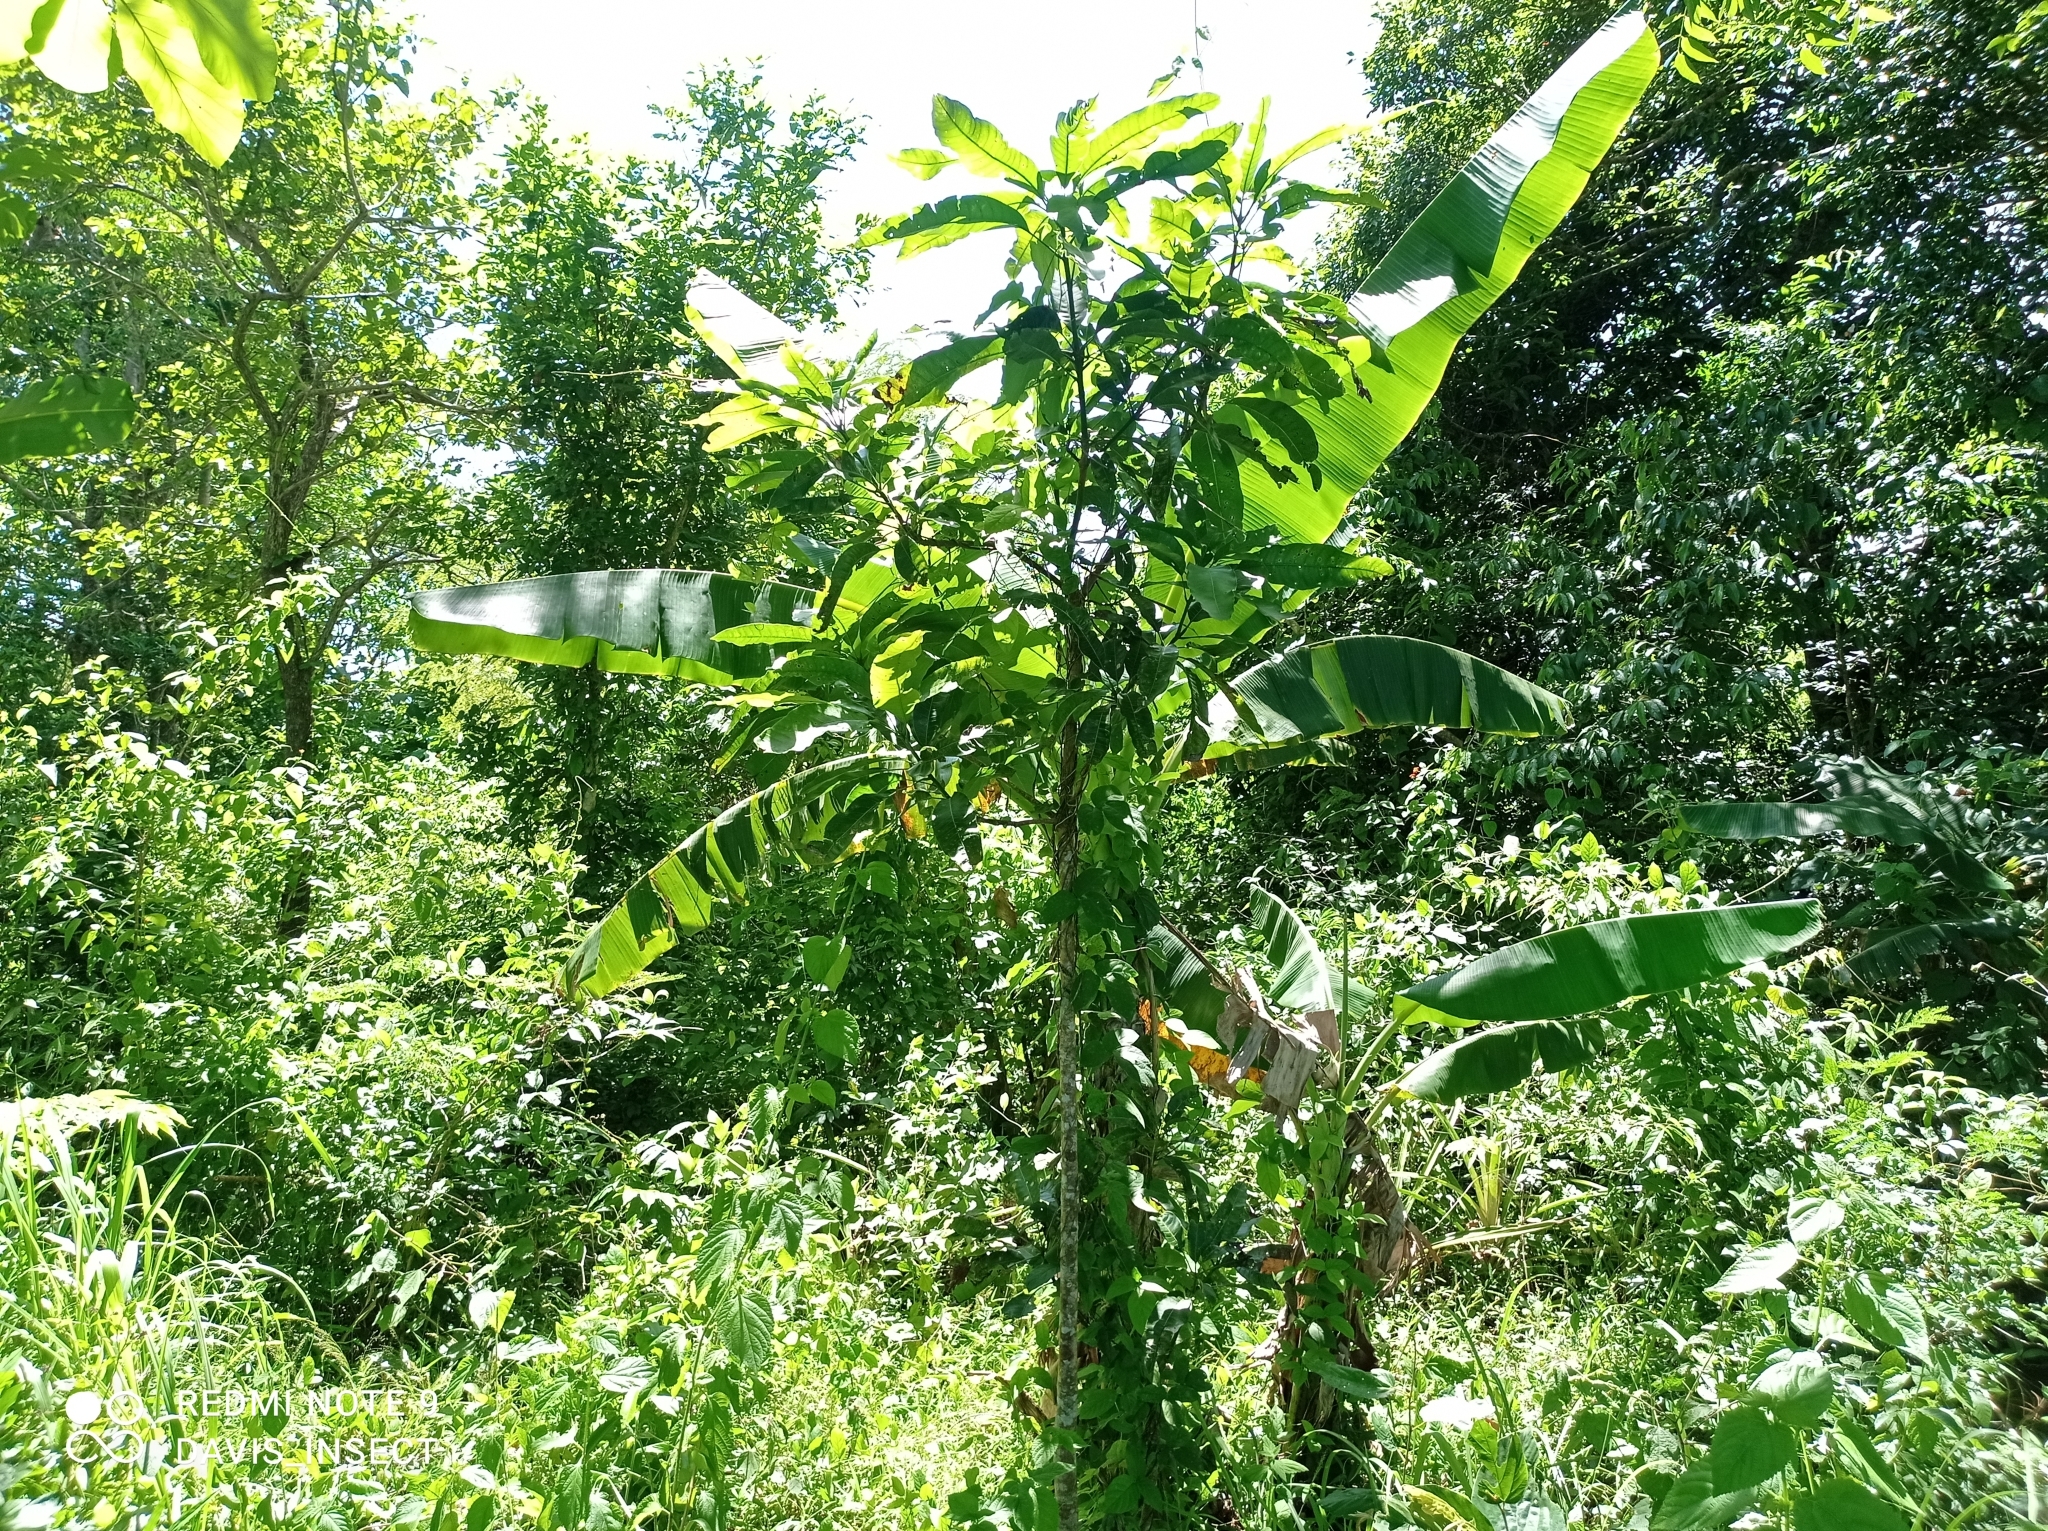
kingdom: Animalia
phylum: Arthropoda
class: Insecta
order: Phasmida
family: Phasmatidae
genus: Nesiophasma
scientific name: Nesiophasma
